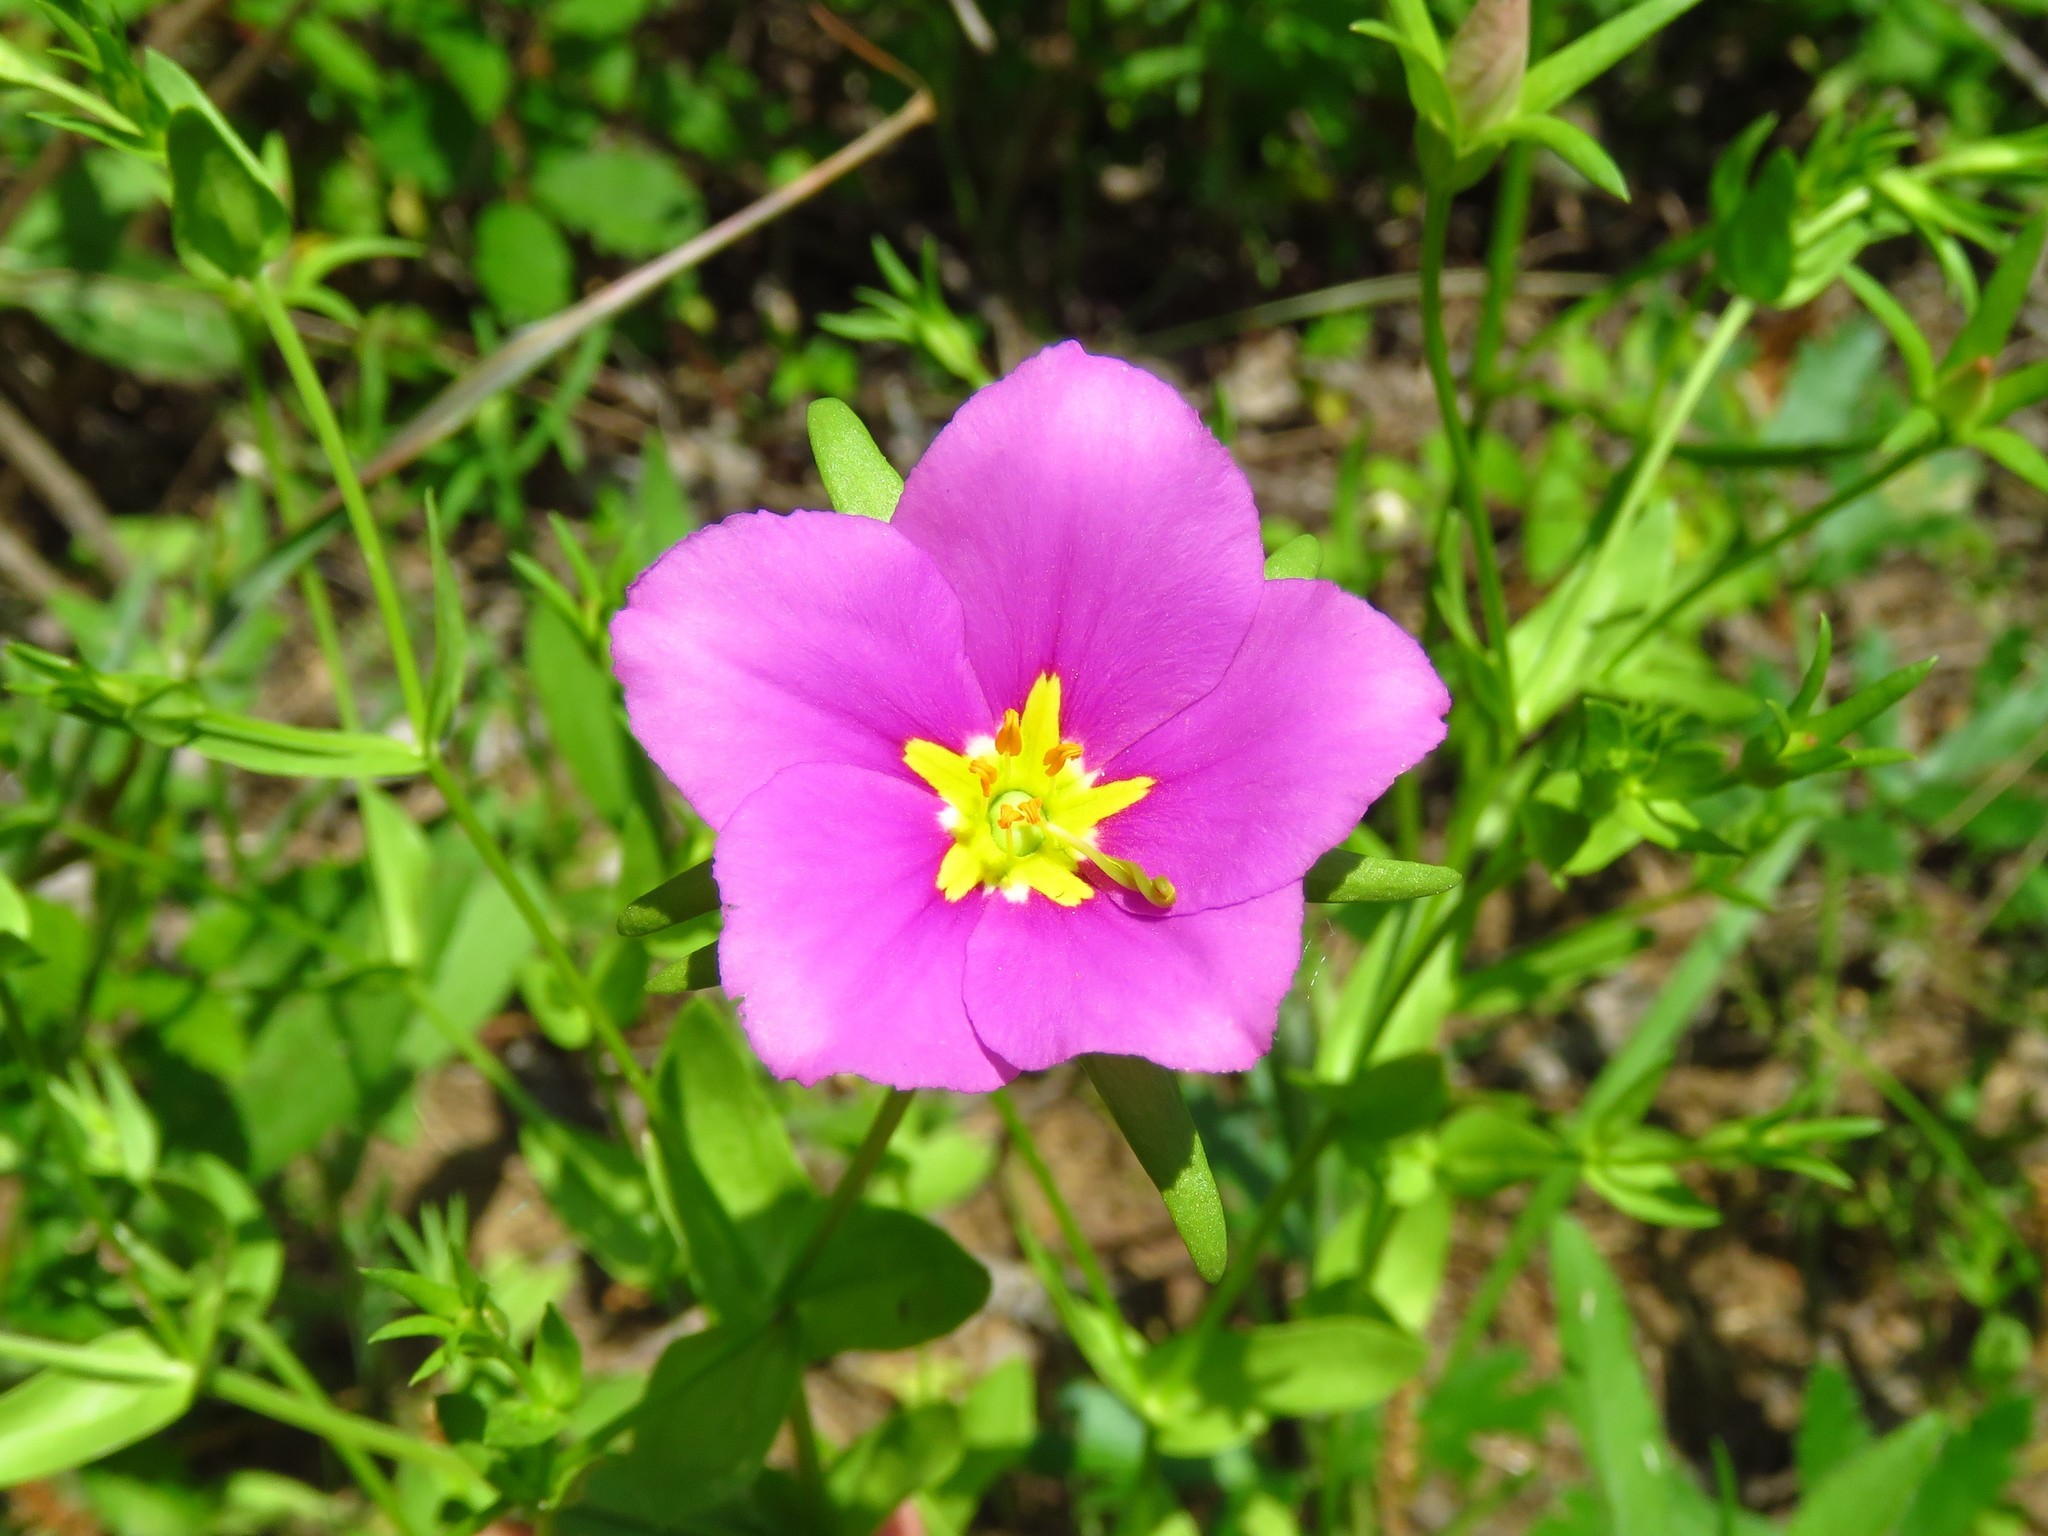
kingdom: Plantae
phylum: Tracheophyta
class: Magnoliopsida
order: Gentianales
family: Gentianaceae
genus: Sabatia
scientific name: Sabatia campestris
